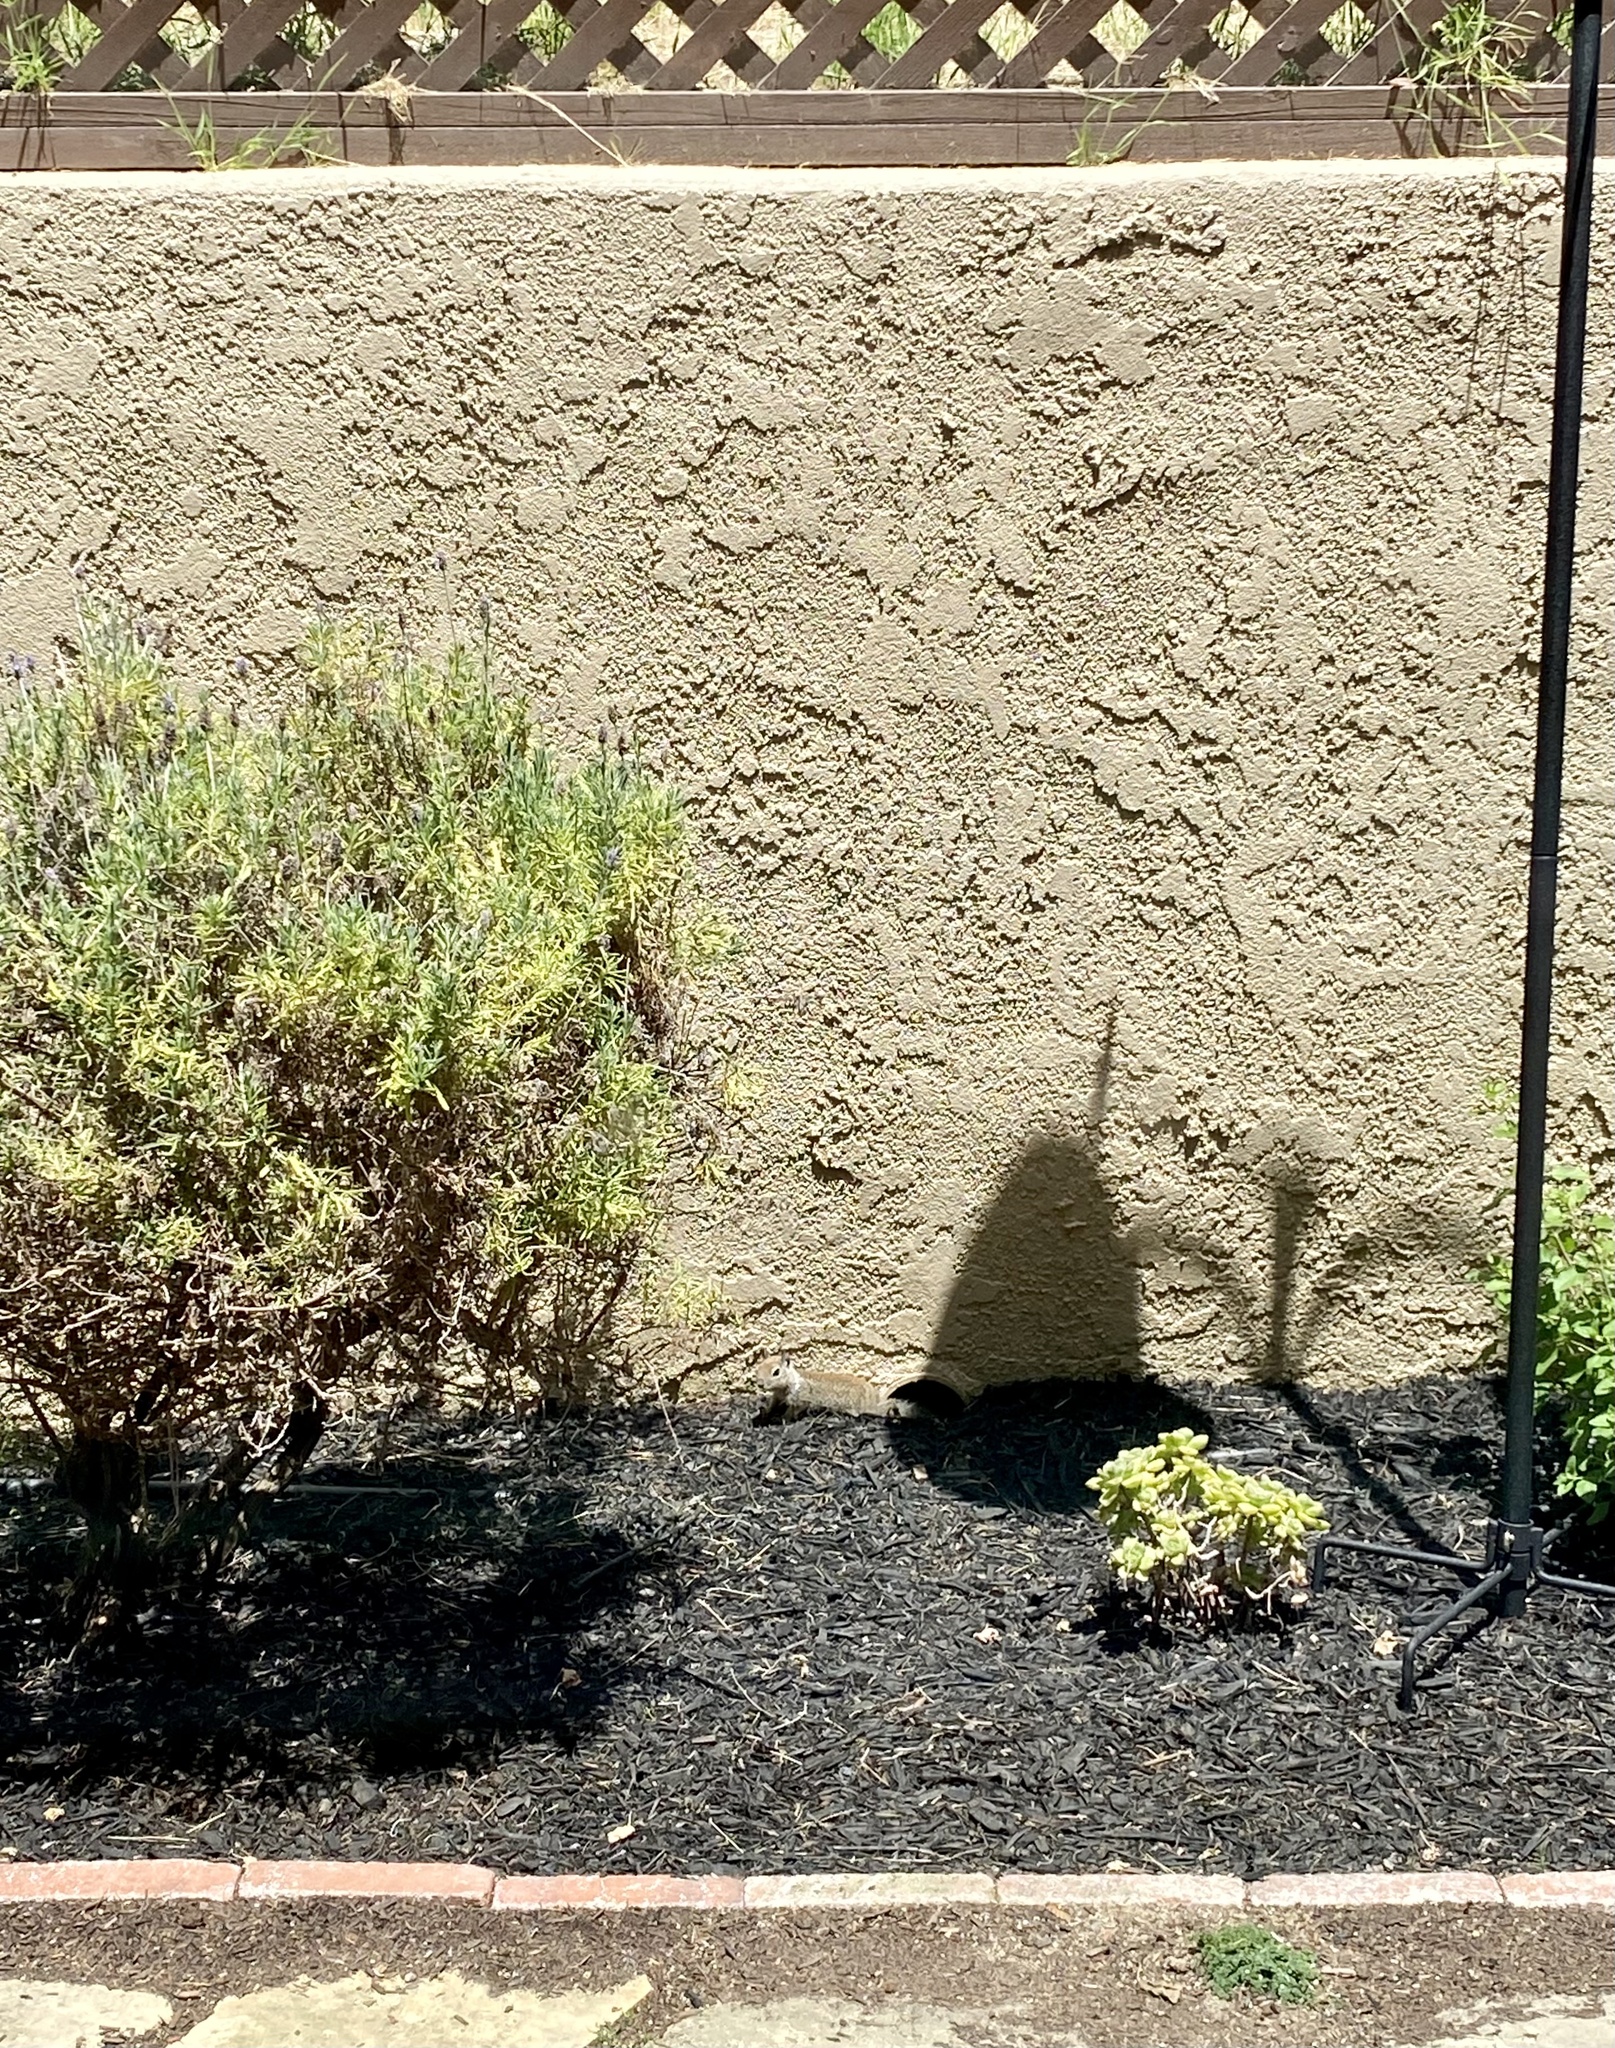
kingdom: Animalia
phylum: Chordata
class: Mammalia
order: Rodentia
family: Sciuridae
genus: Otospermophilus
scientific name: Otospermophilus beecheyi
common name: California ground squirrel
